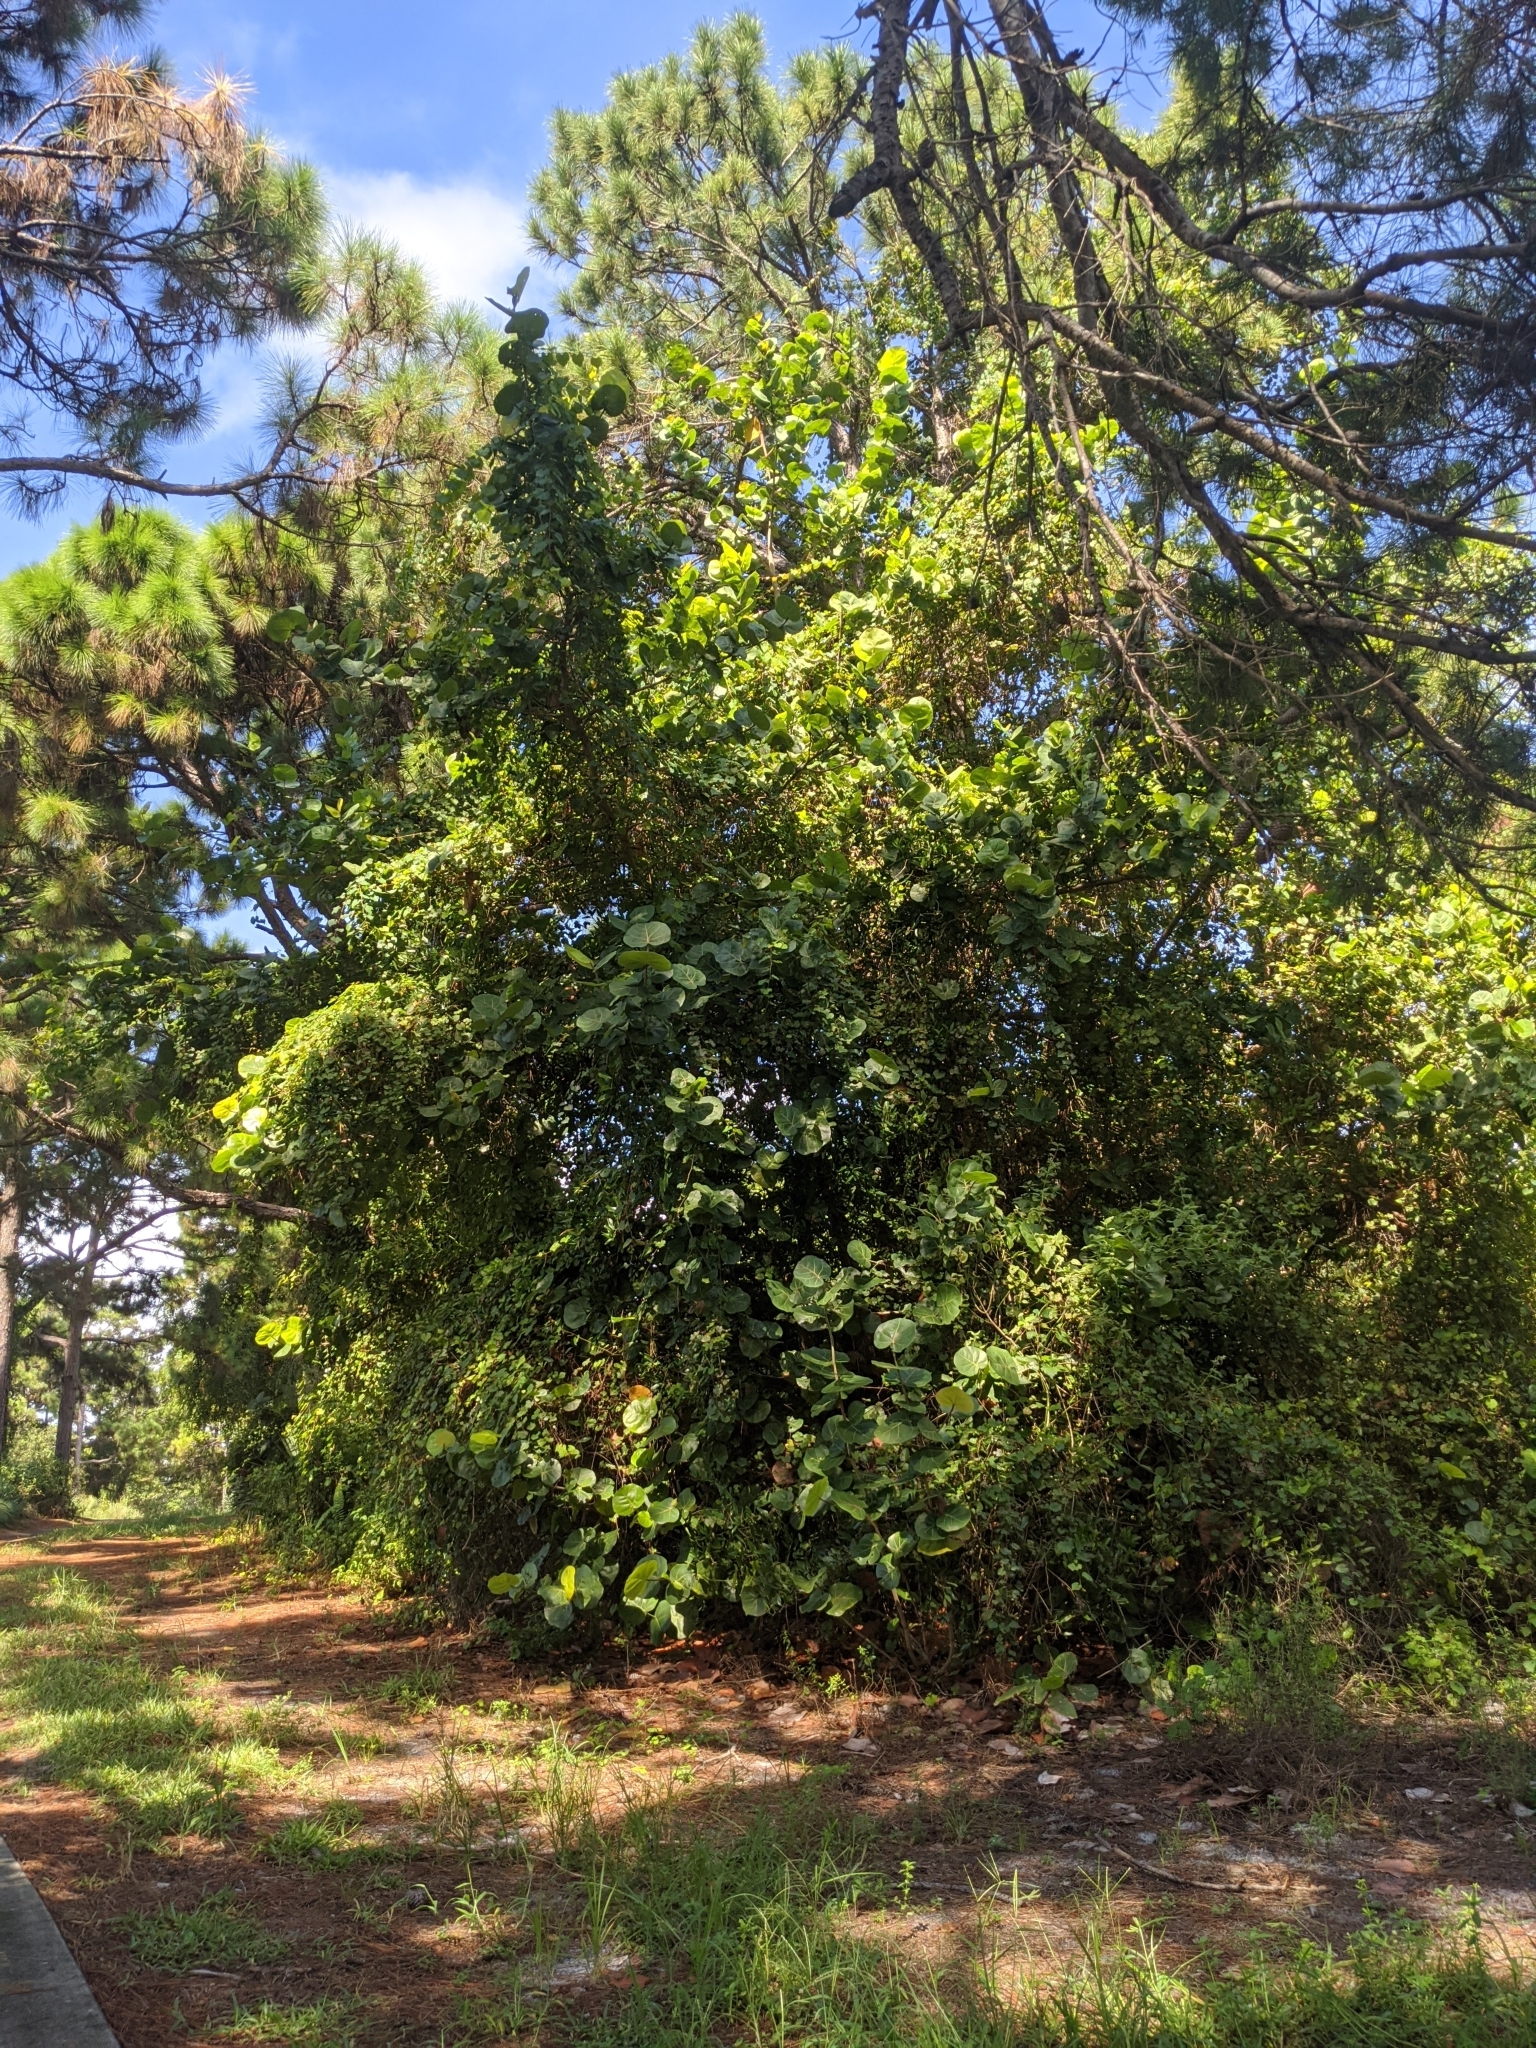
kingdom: Plantae
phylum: Tracheophyta
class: Magnoliopsida
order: Caryophyllales
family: Polygonaceae
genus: Coccoloba
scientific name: Coccoloba uvifera
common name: Seagrape
